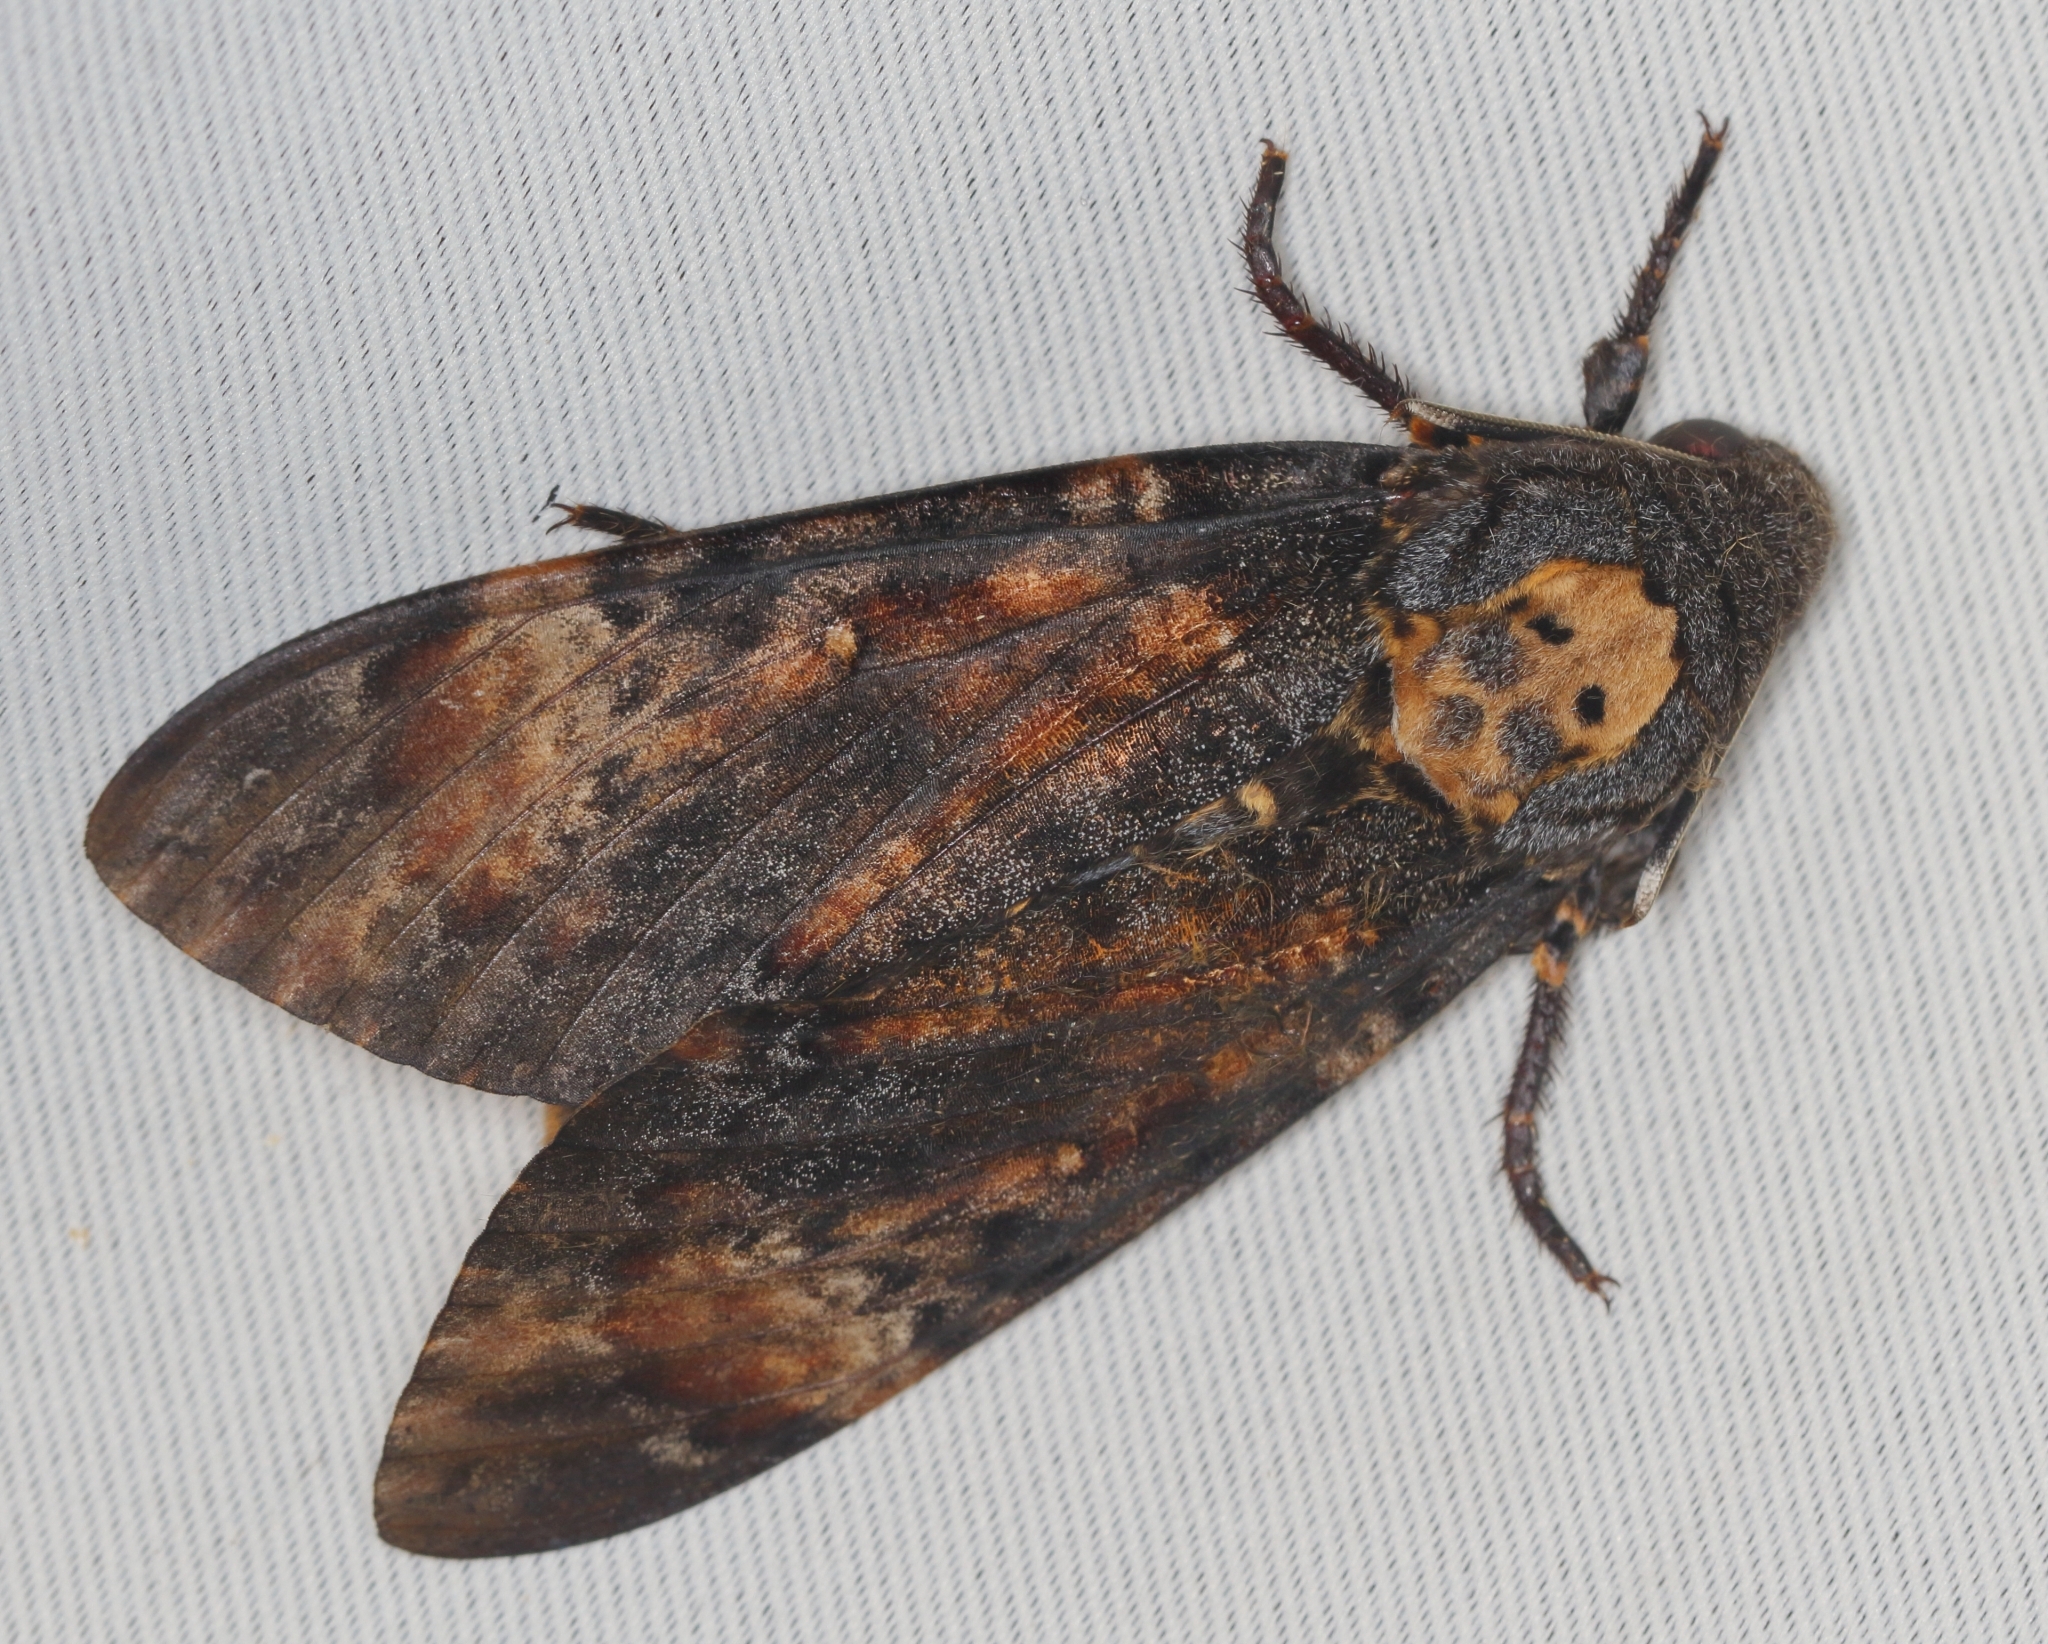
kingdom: Animalia
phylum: Arthropoda
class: Insecta
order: Lepidoptera
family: Sphingidae
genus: Acherontia
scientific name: Acherontia atropos
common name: Death's-head hawk moth
